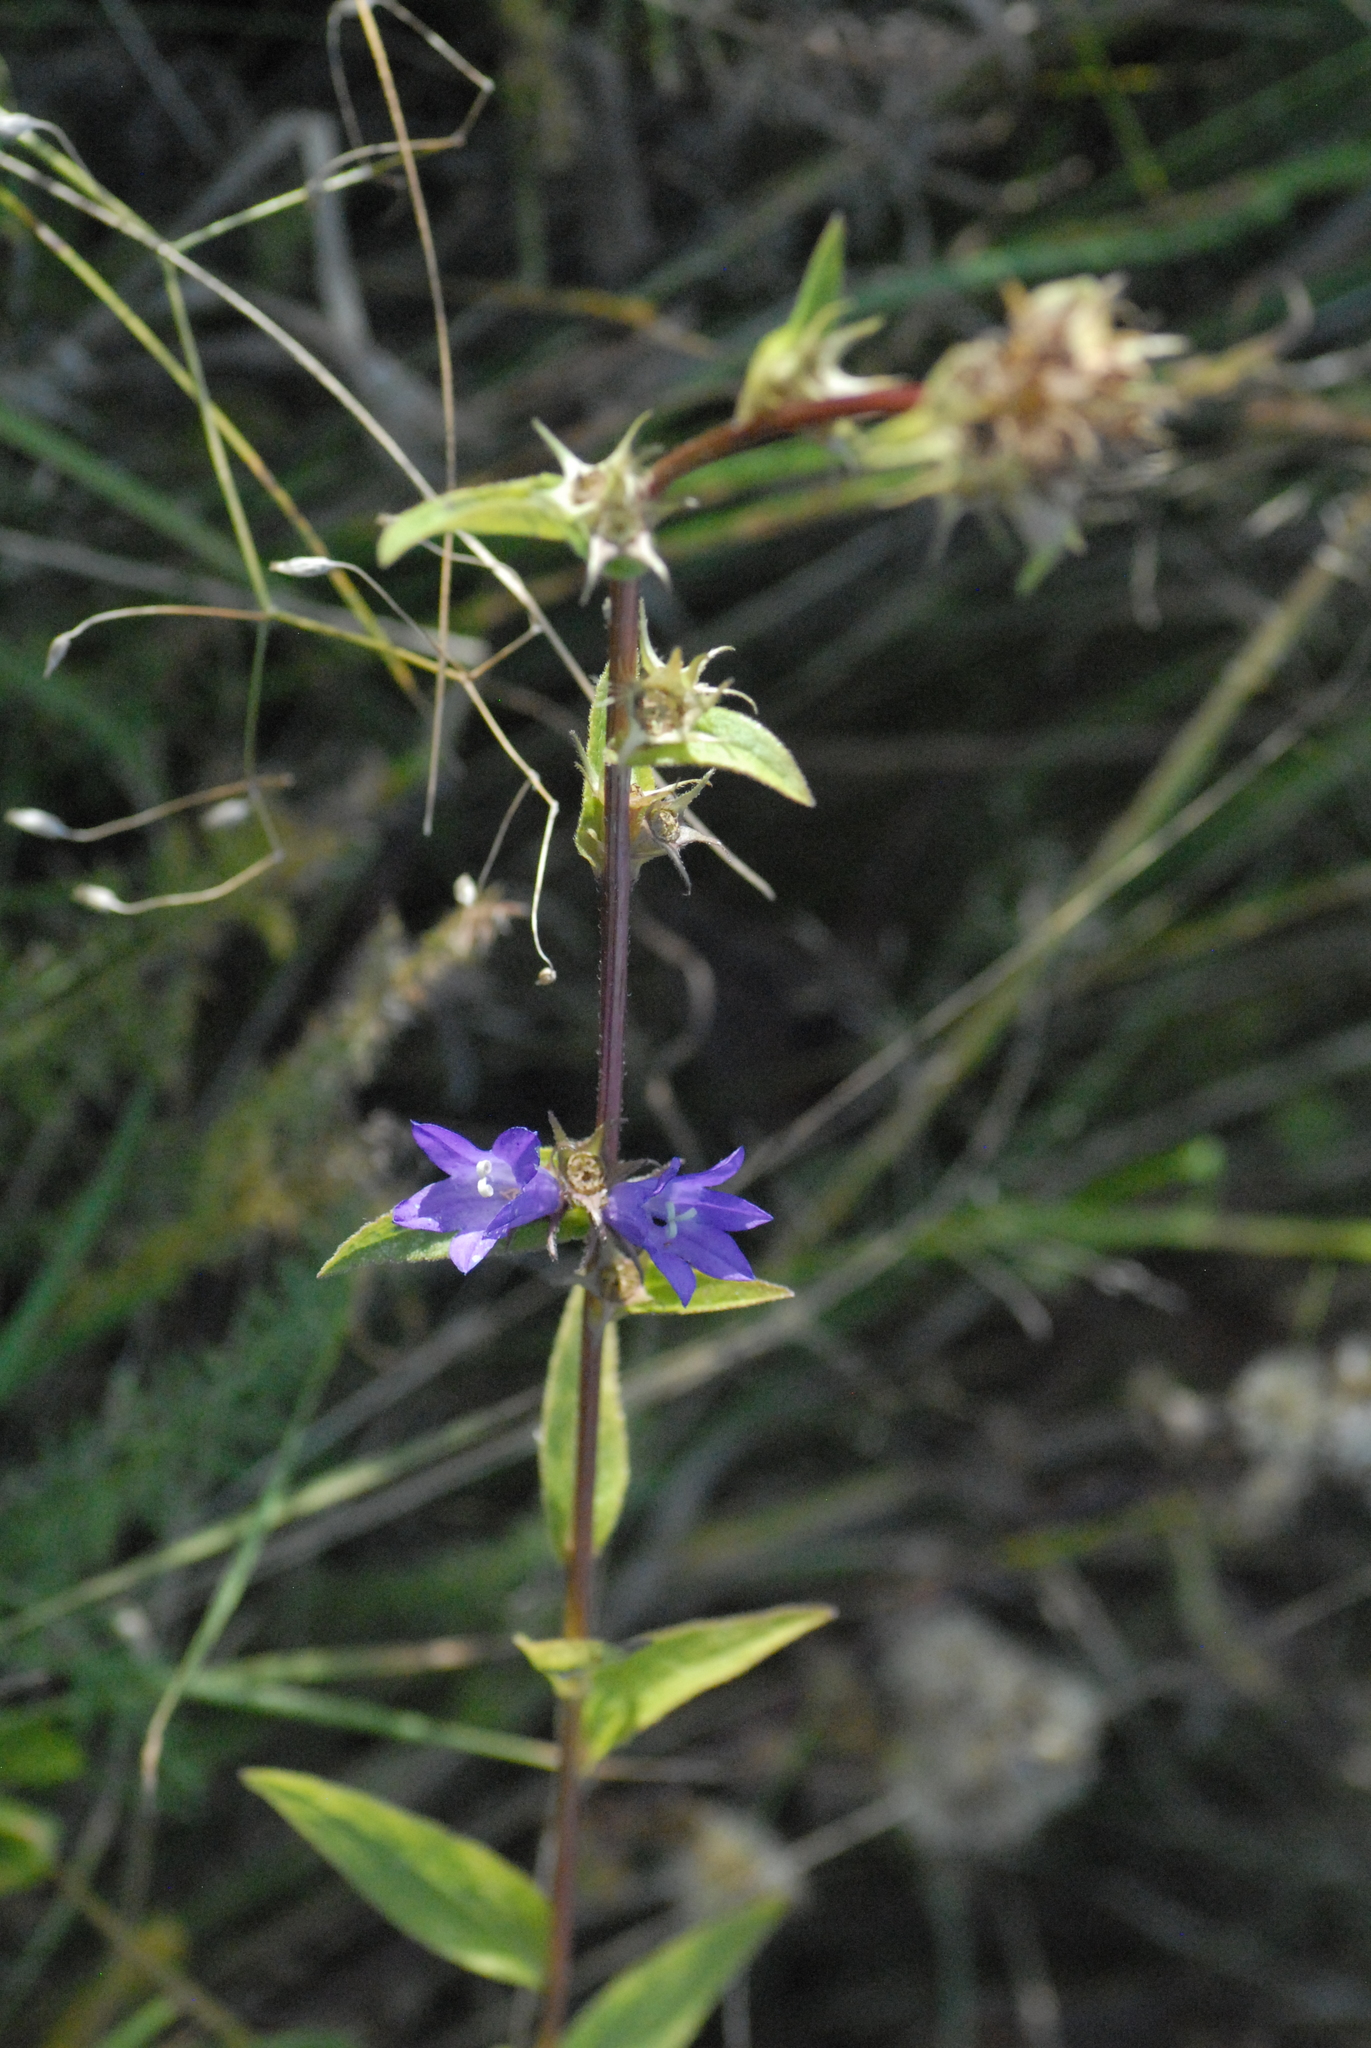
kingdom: Plantae
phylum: Tracheophyta
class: Magnoliopsida
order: Asterales
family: Campanulaceae
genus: Campanula
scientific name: Campanula glomerata
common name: Clustered bellflower
